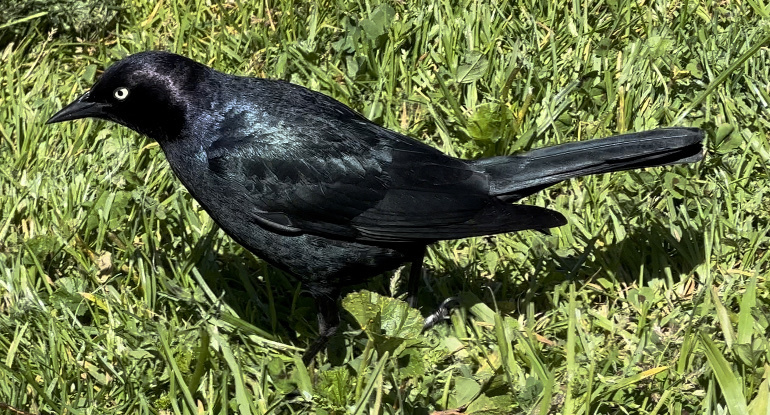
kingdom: Animalia
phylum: Chordata
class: Aves
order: Passeriformes
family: Icteridae
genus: Euphagus
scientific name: Euphagus cyanocephalus
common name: Brewer's blackbird
